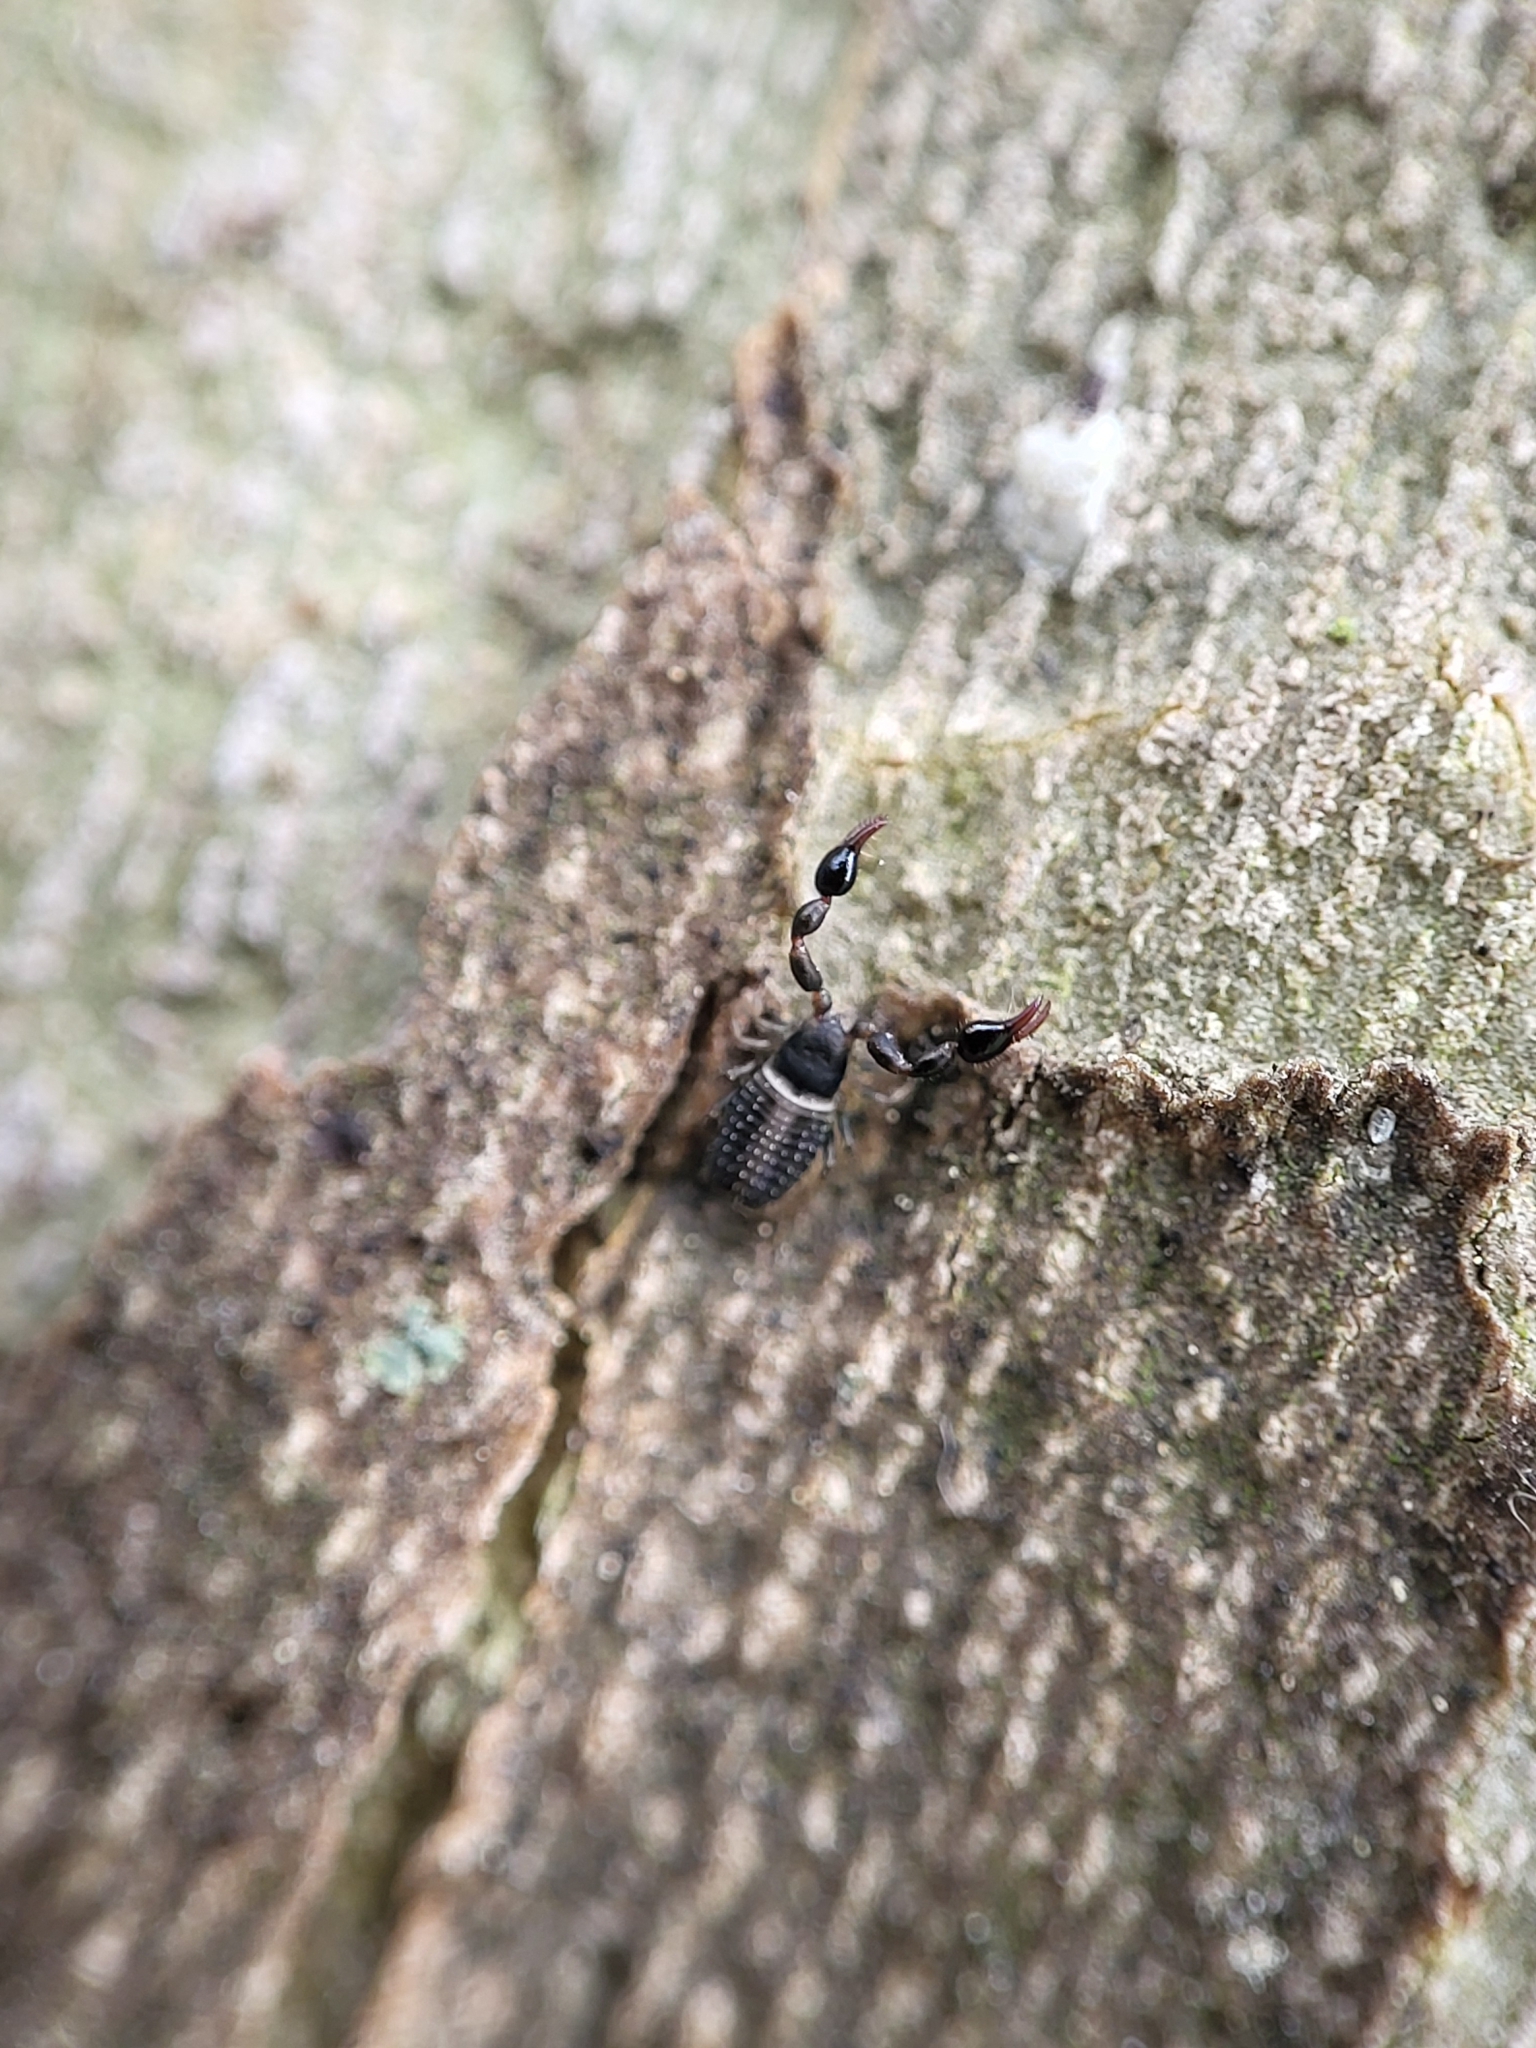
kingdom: Animalia
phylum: Arthropoda
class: Arachnida
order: Pseudoscorpiones
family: Chernetidae
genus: Parachernes
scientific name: Parachernes virginicus
